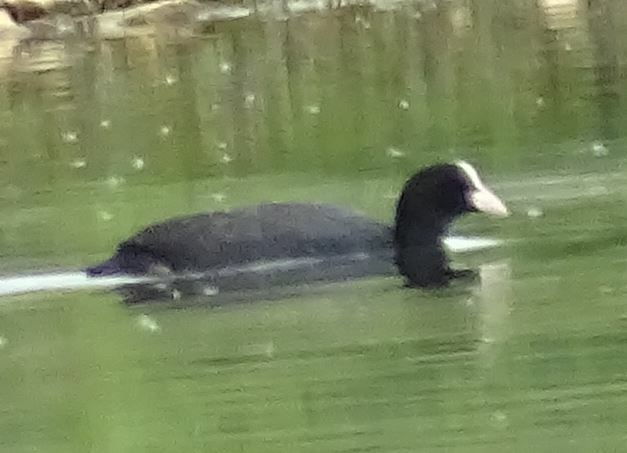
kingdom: Animalia
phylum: Chordata
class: Aves
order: Gruiformes
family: Rallidae
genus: Fulica
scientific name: Fulica atra
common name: Eurasian coot
